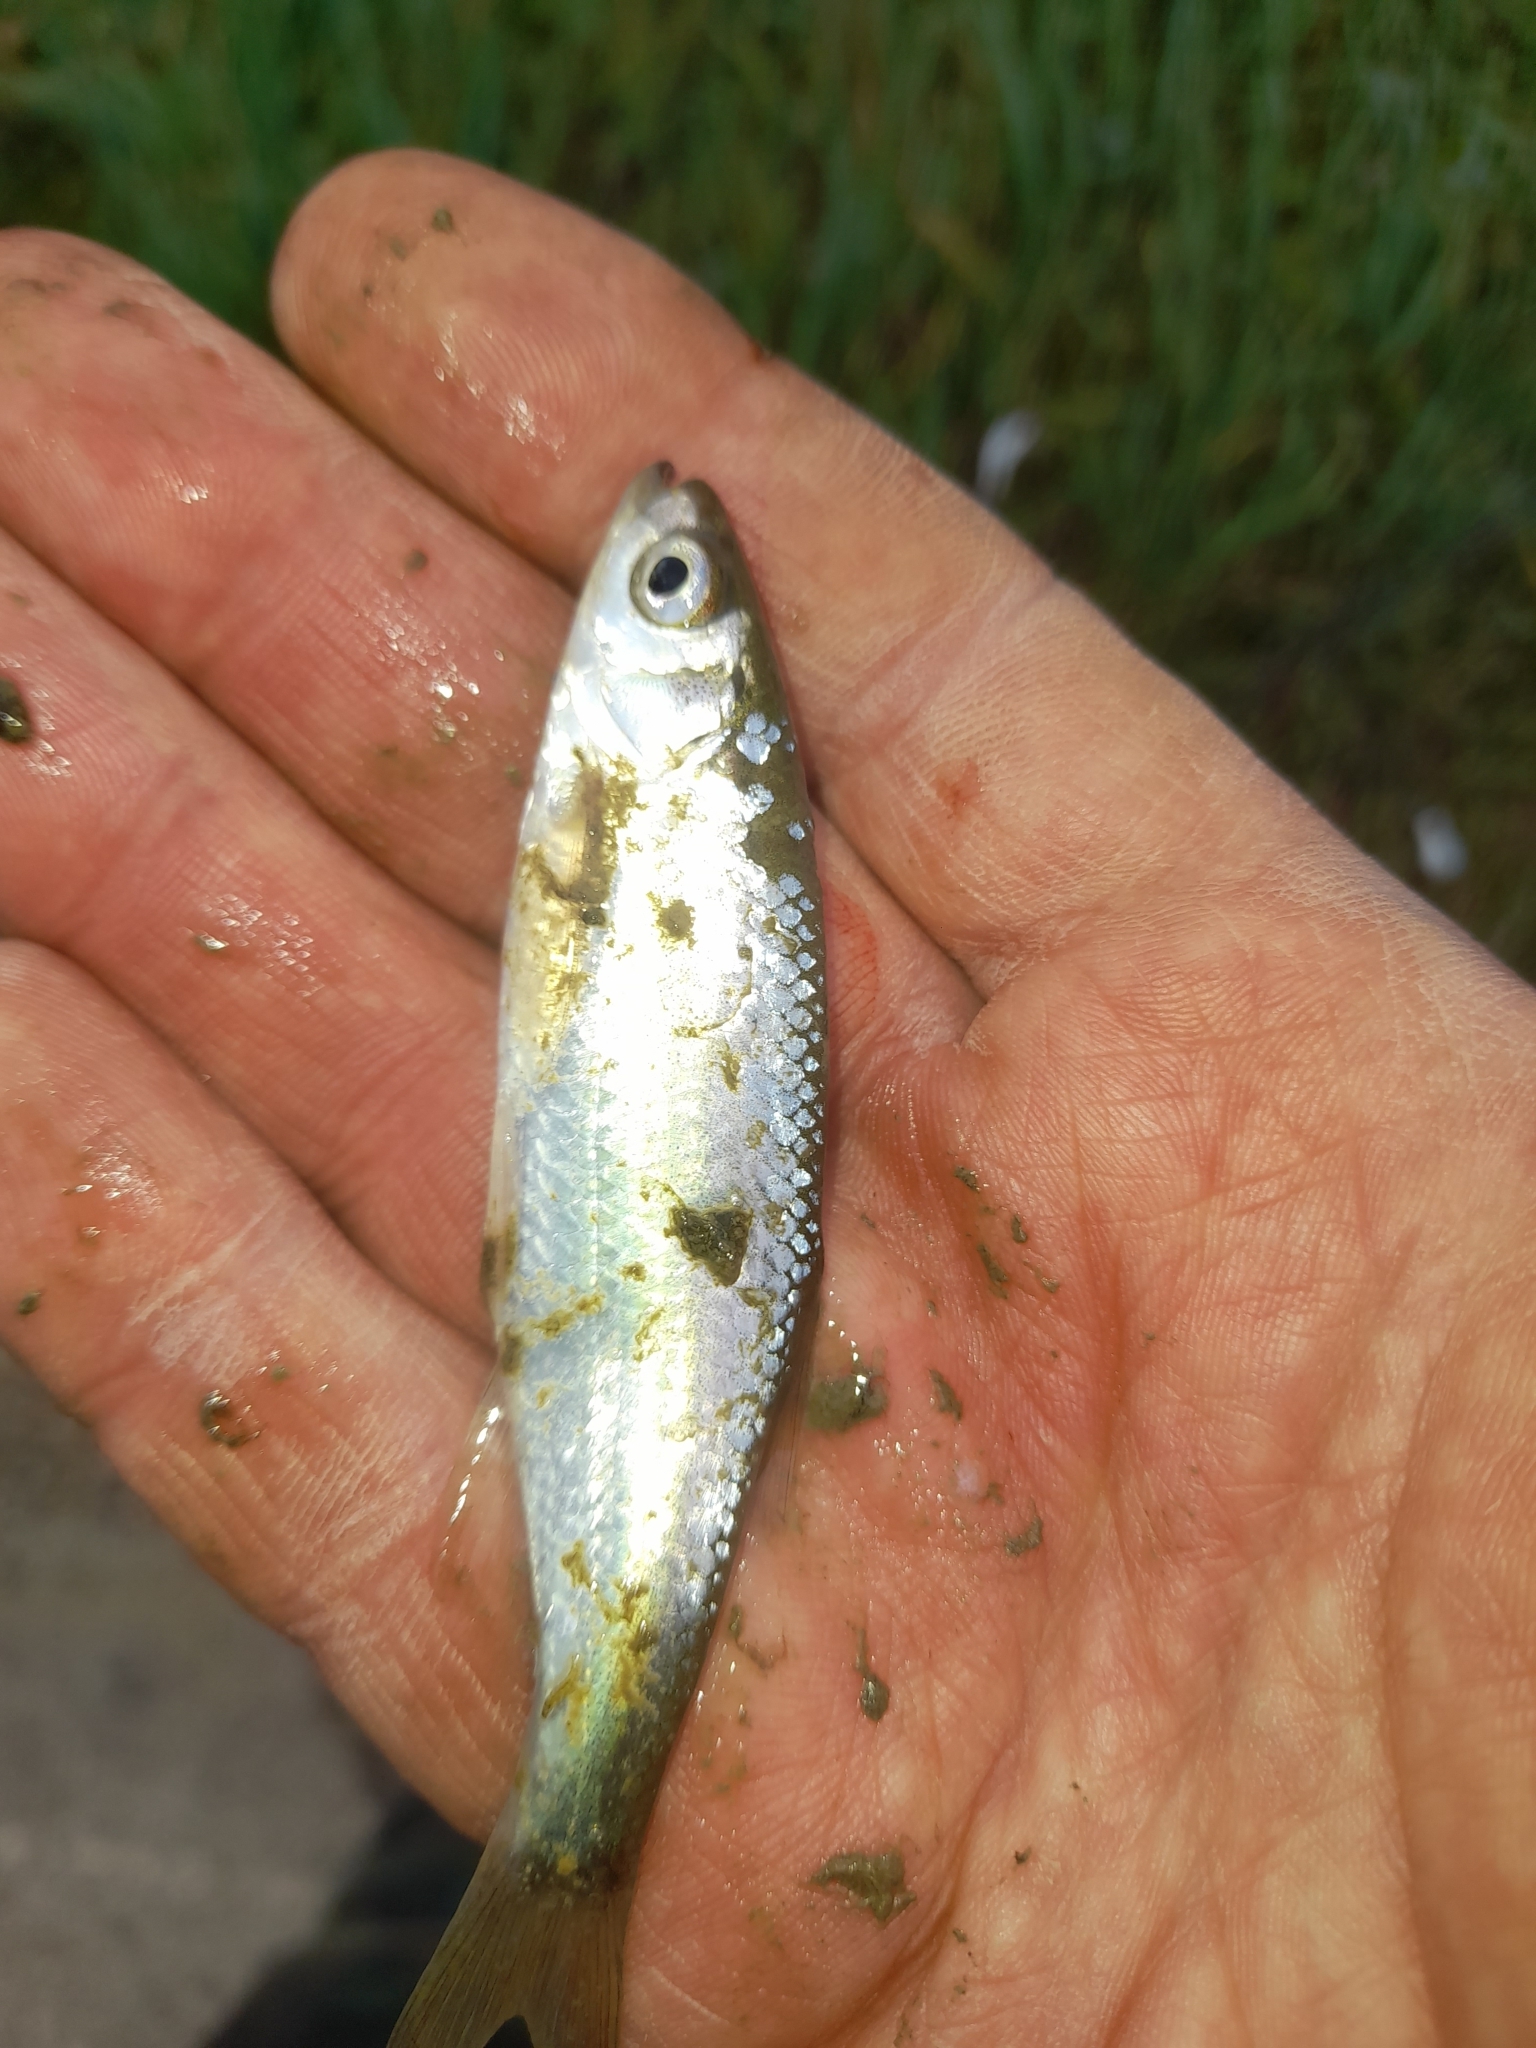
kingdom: Animalia
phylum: Chordata
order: Cypriniformes
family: Cyprinidae
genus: Alburnus
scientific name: Alburnus arborella
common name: Alborella
